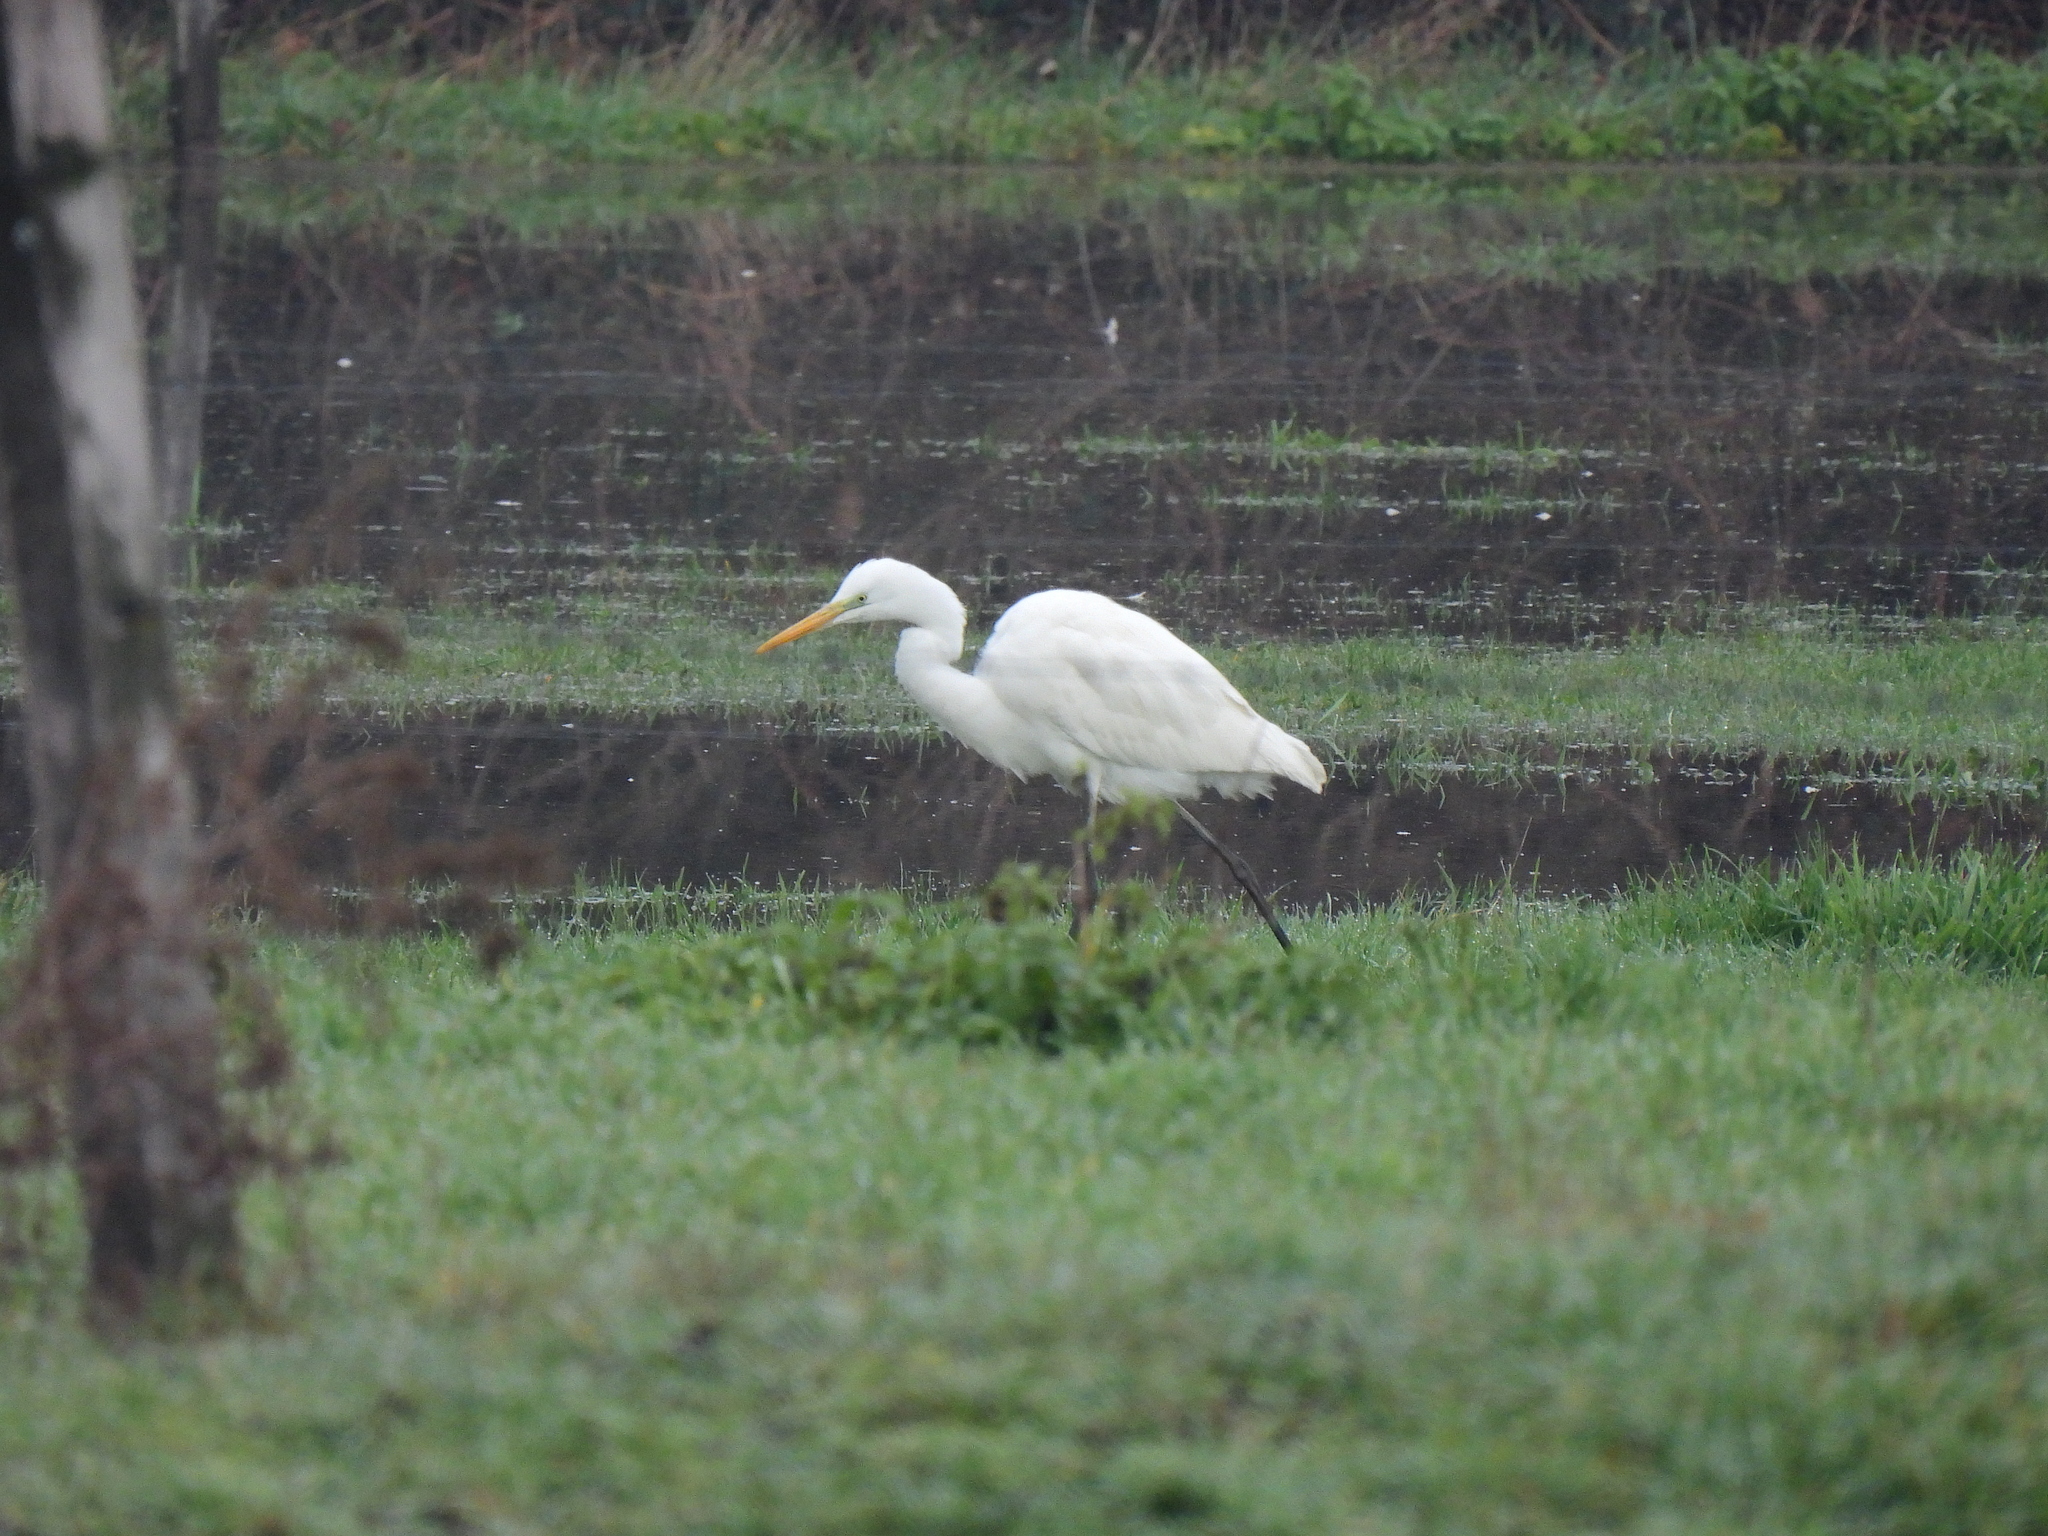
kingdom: Animalia
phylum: Chordata
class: Aves
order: Pelecaniformes
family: Ardeidae
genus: Ardea
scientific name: Ardea alba
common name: Great egret
